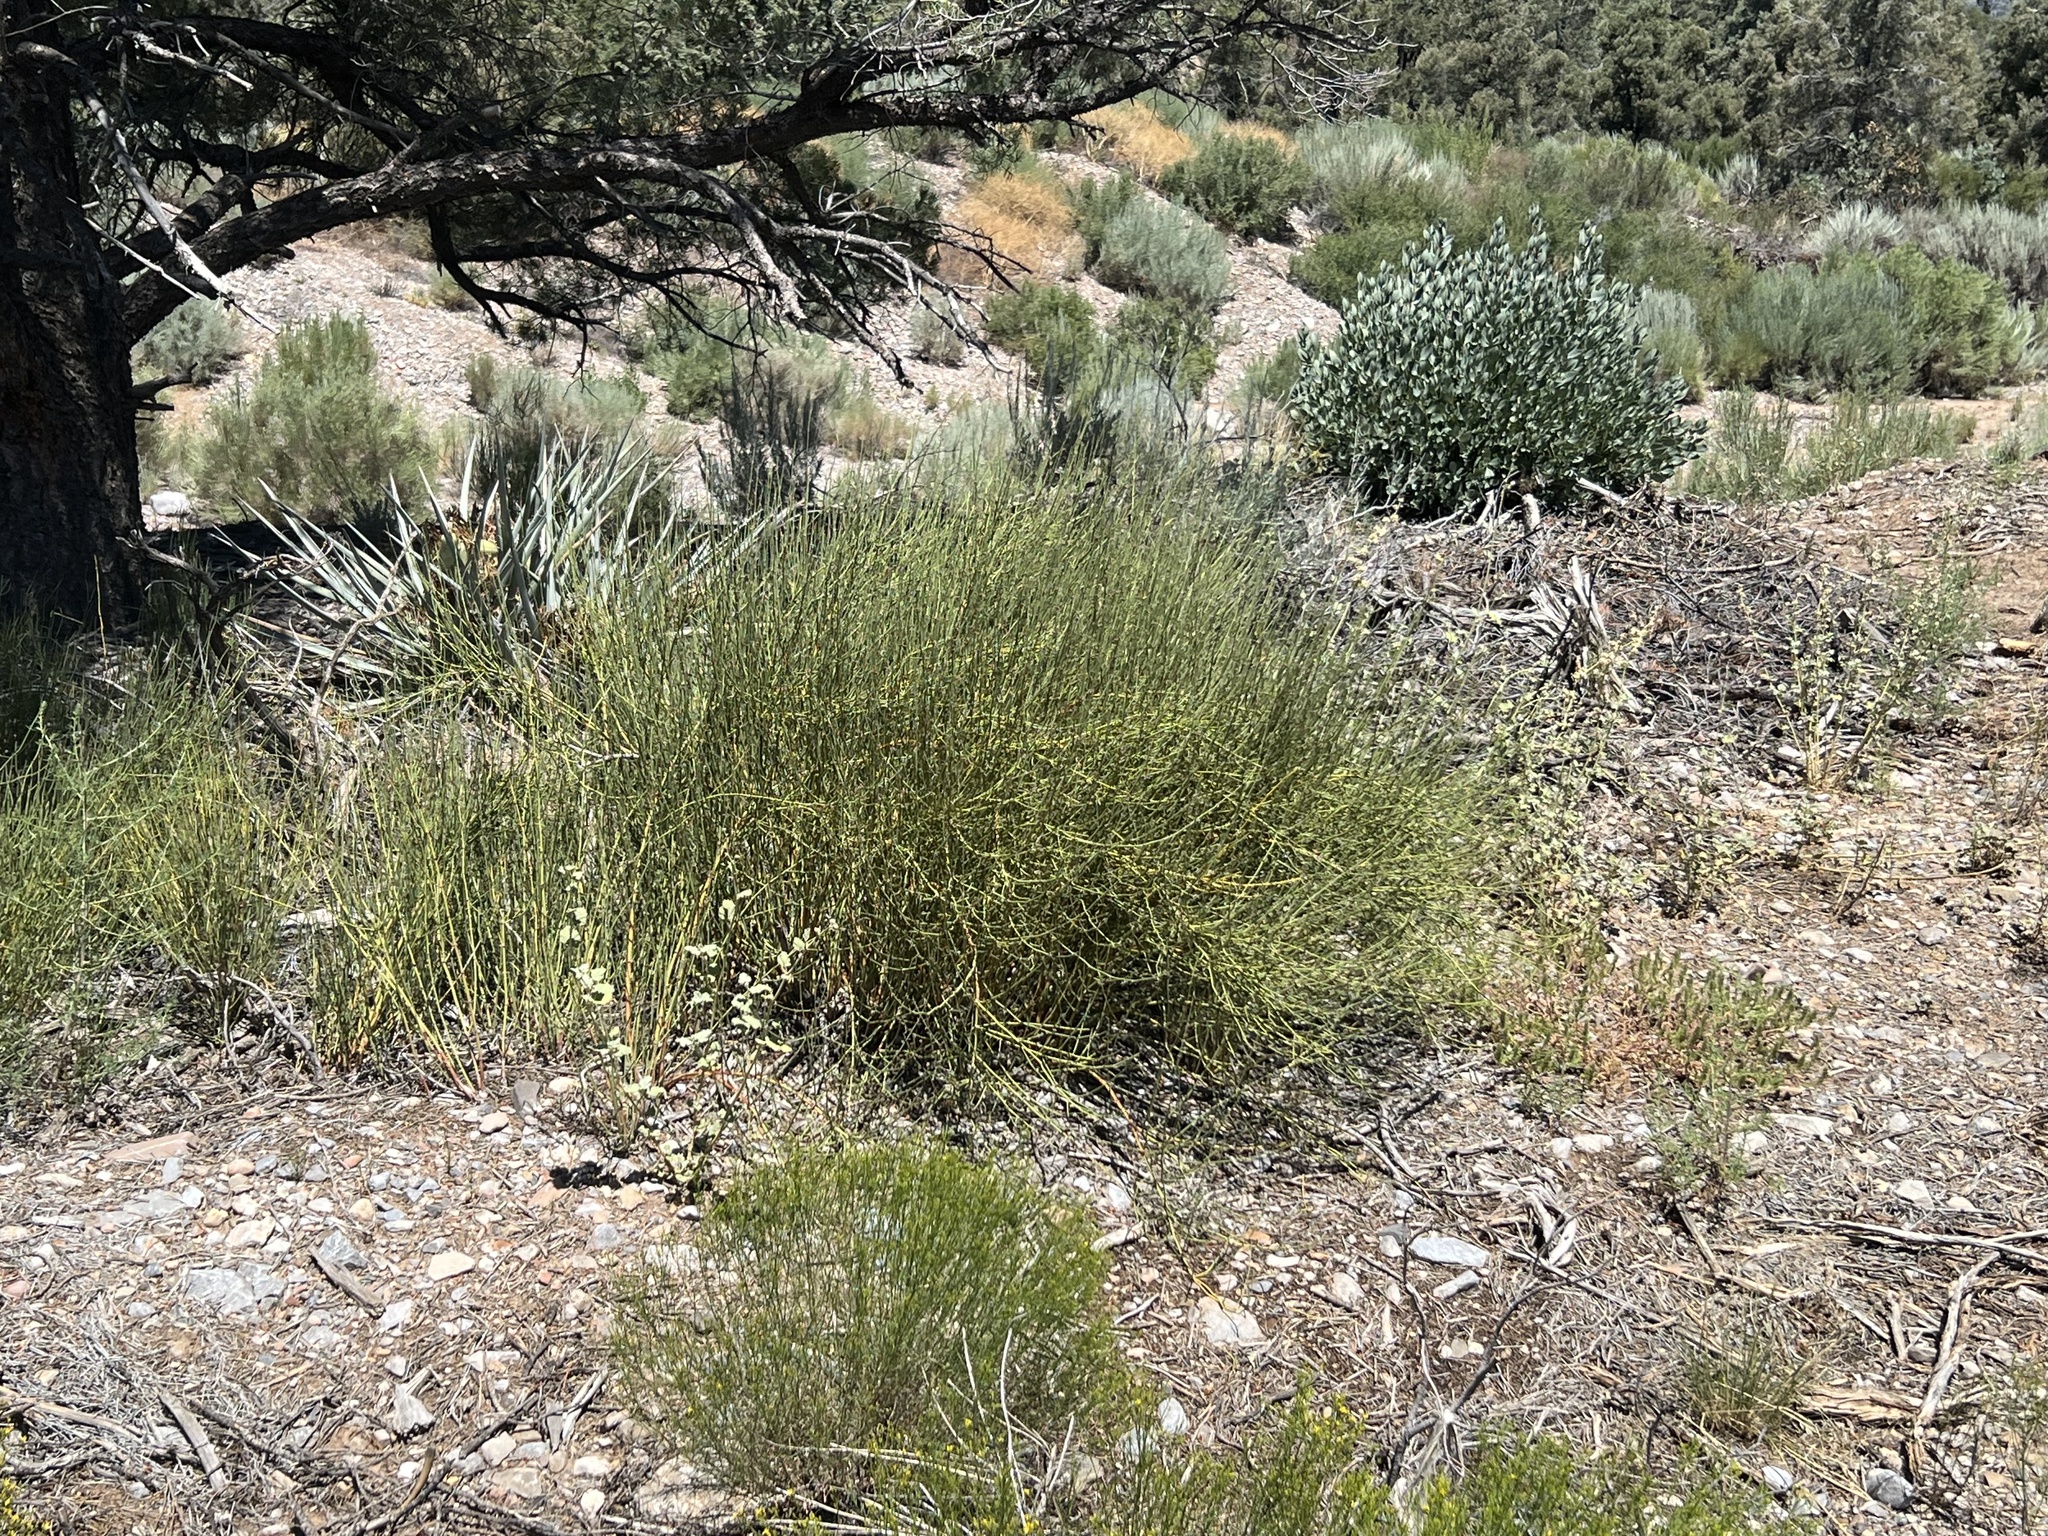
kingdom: Plantae
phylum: Tracheophyta
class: Gnetopsida
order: Ephedrales
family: Ephedraceae
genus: Ephedra
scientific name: Ephedra viridis
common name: Green ephedra
